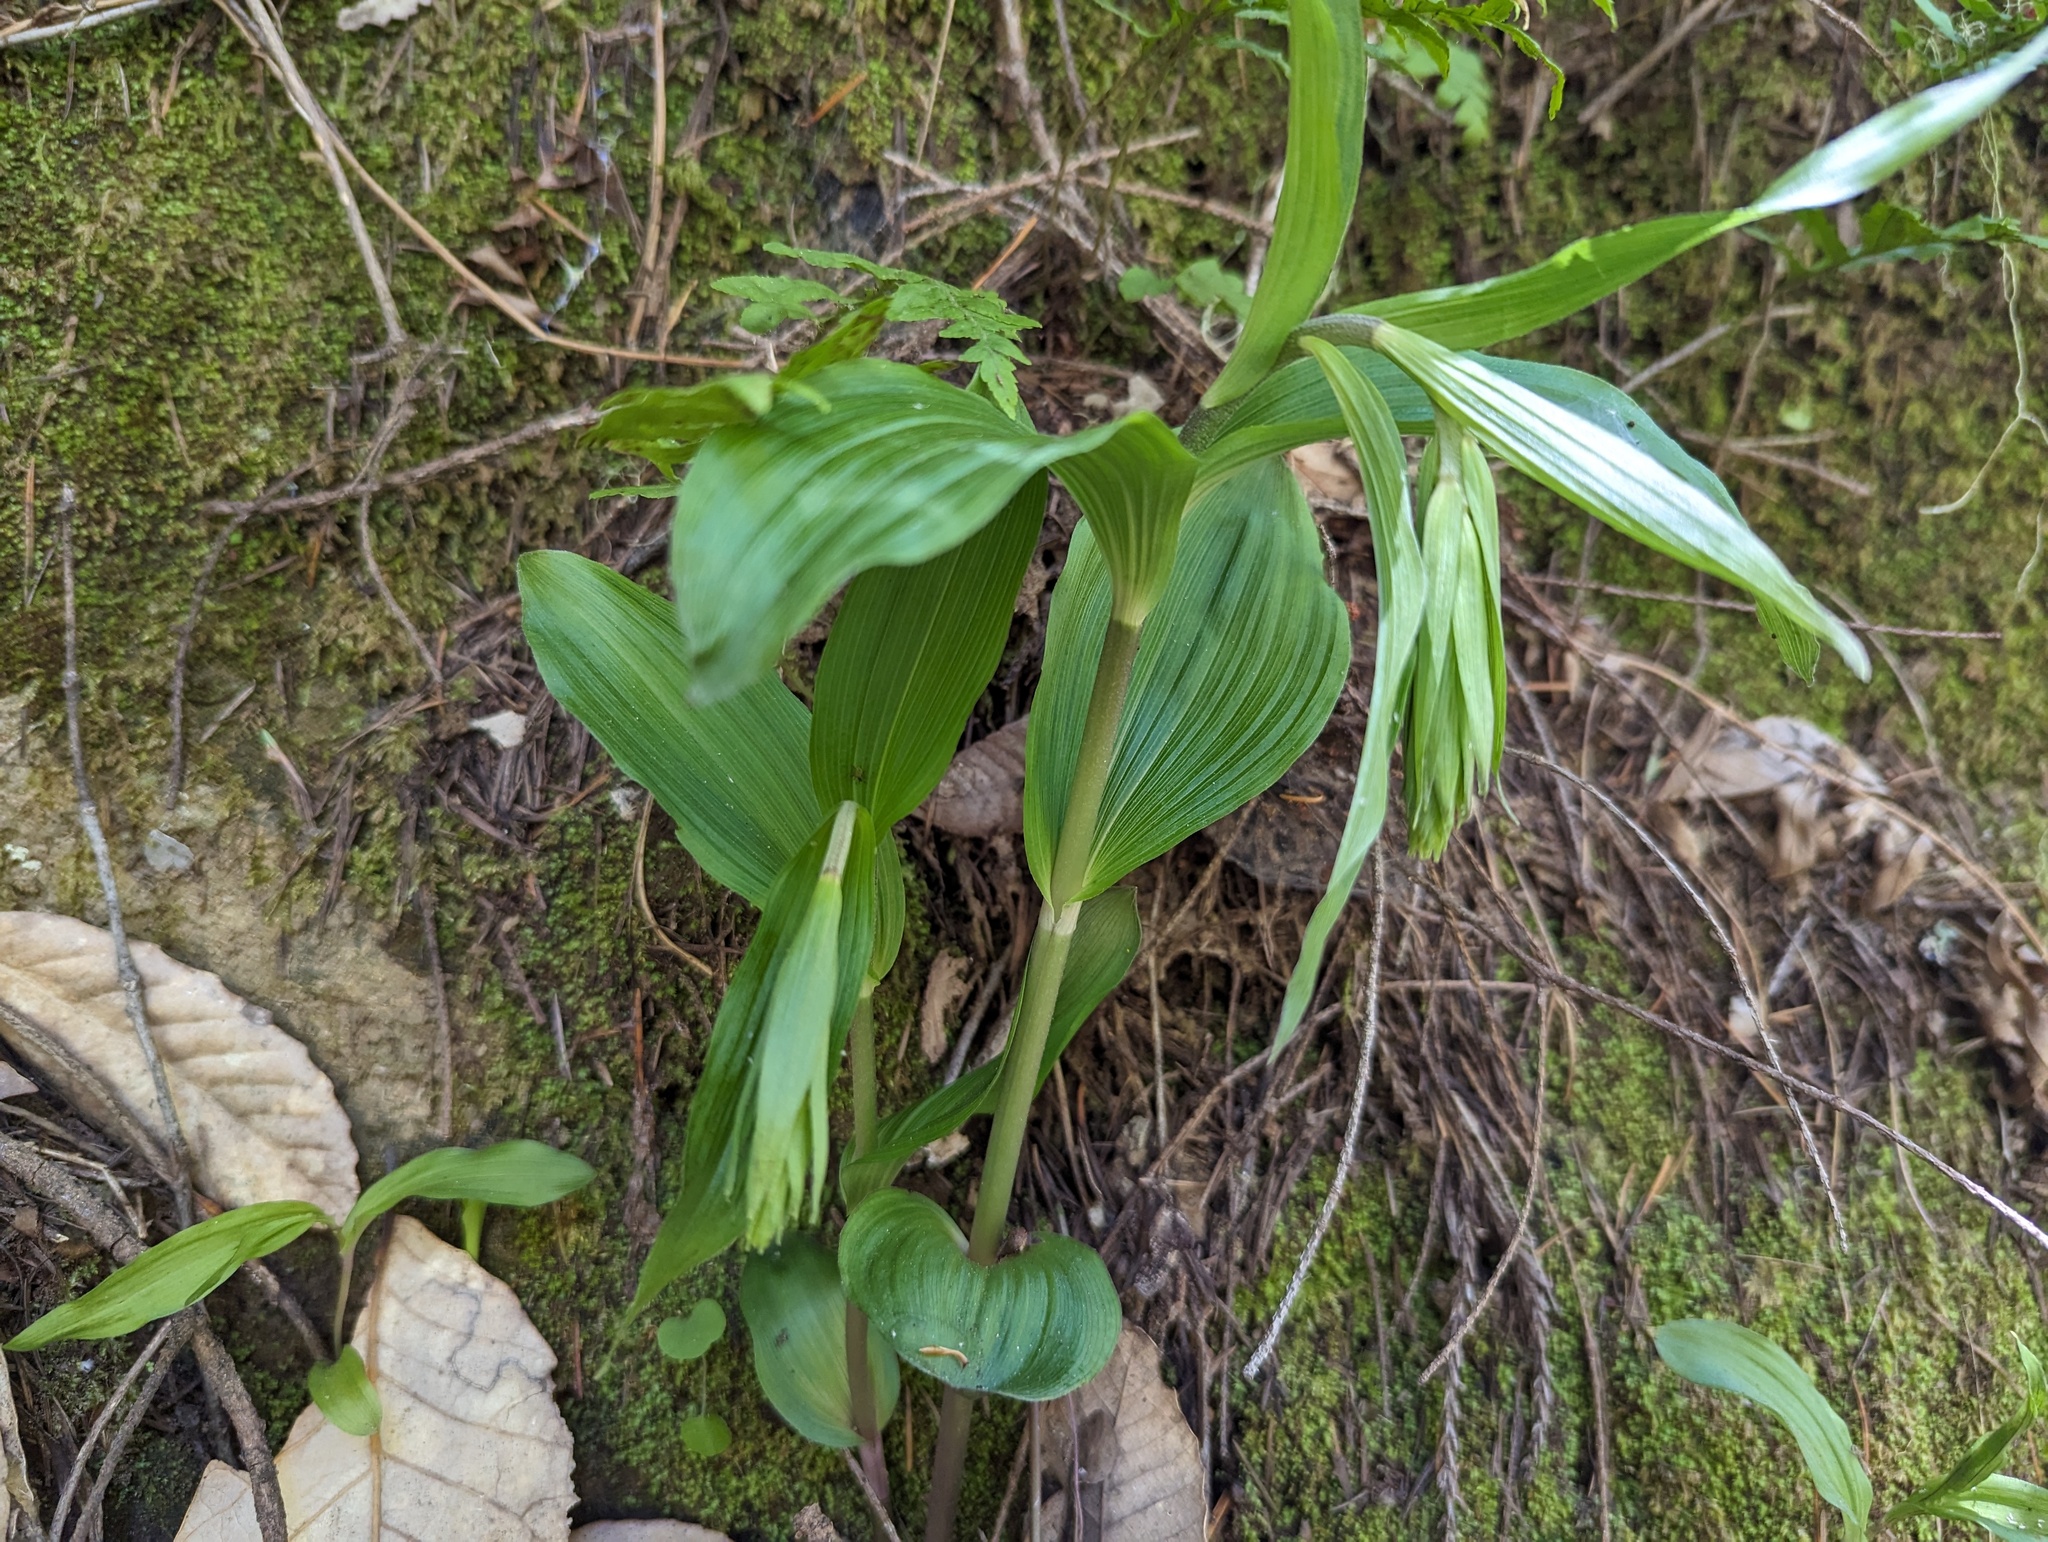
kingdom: Plantae
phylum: Tracheophyta
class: Liliopsida
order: Asparagales
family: Orchidaceae
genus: Epipactis
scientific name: Epipactis helleborine
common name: Broad-leaved helleborine
